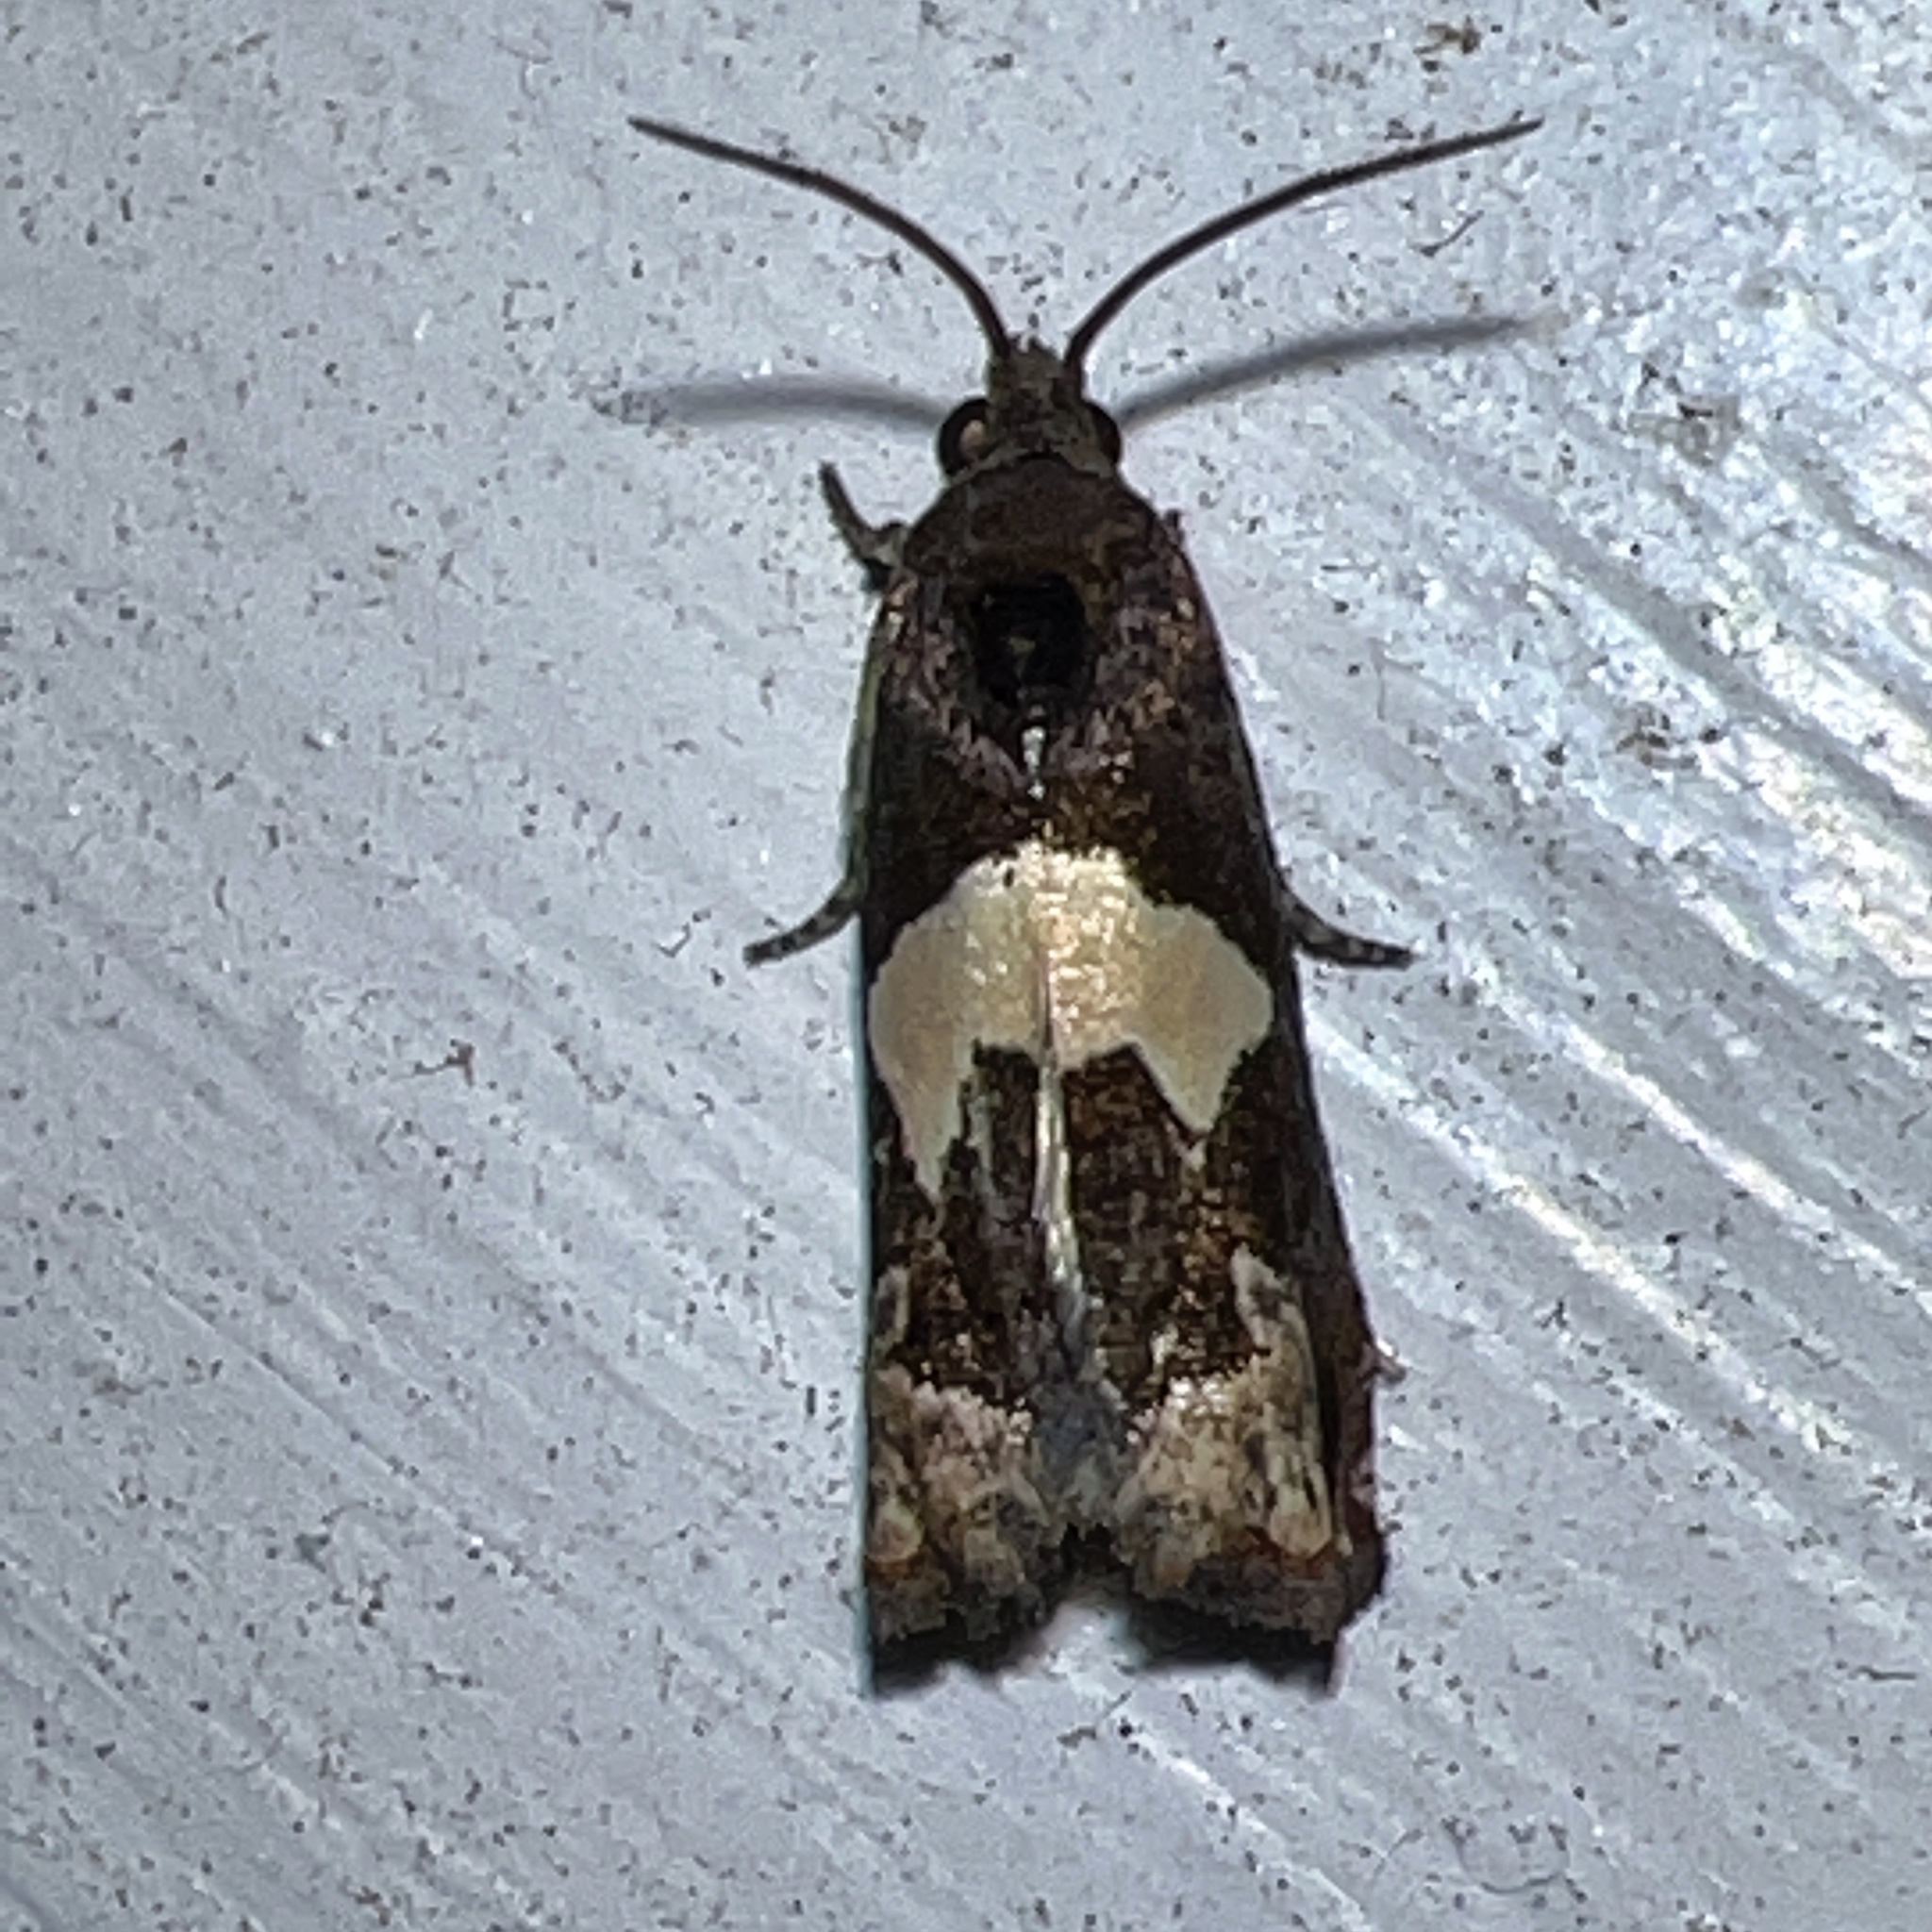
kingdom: Animalia
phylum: Arthropoda
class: Insecta
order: Lepidoptera
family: Tortricidae
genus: Epiblema
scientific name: Epiblema otiosana
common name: Bidens borer moth
